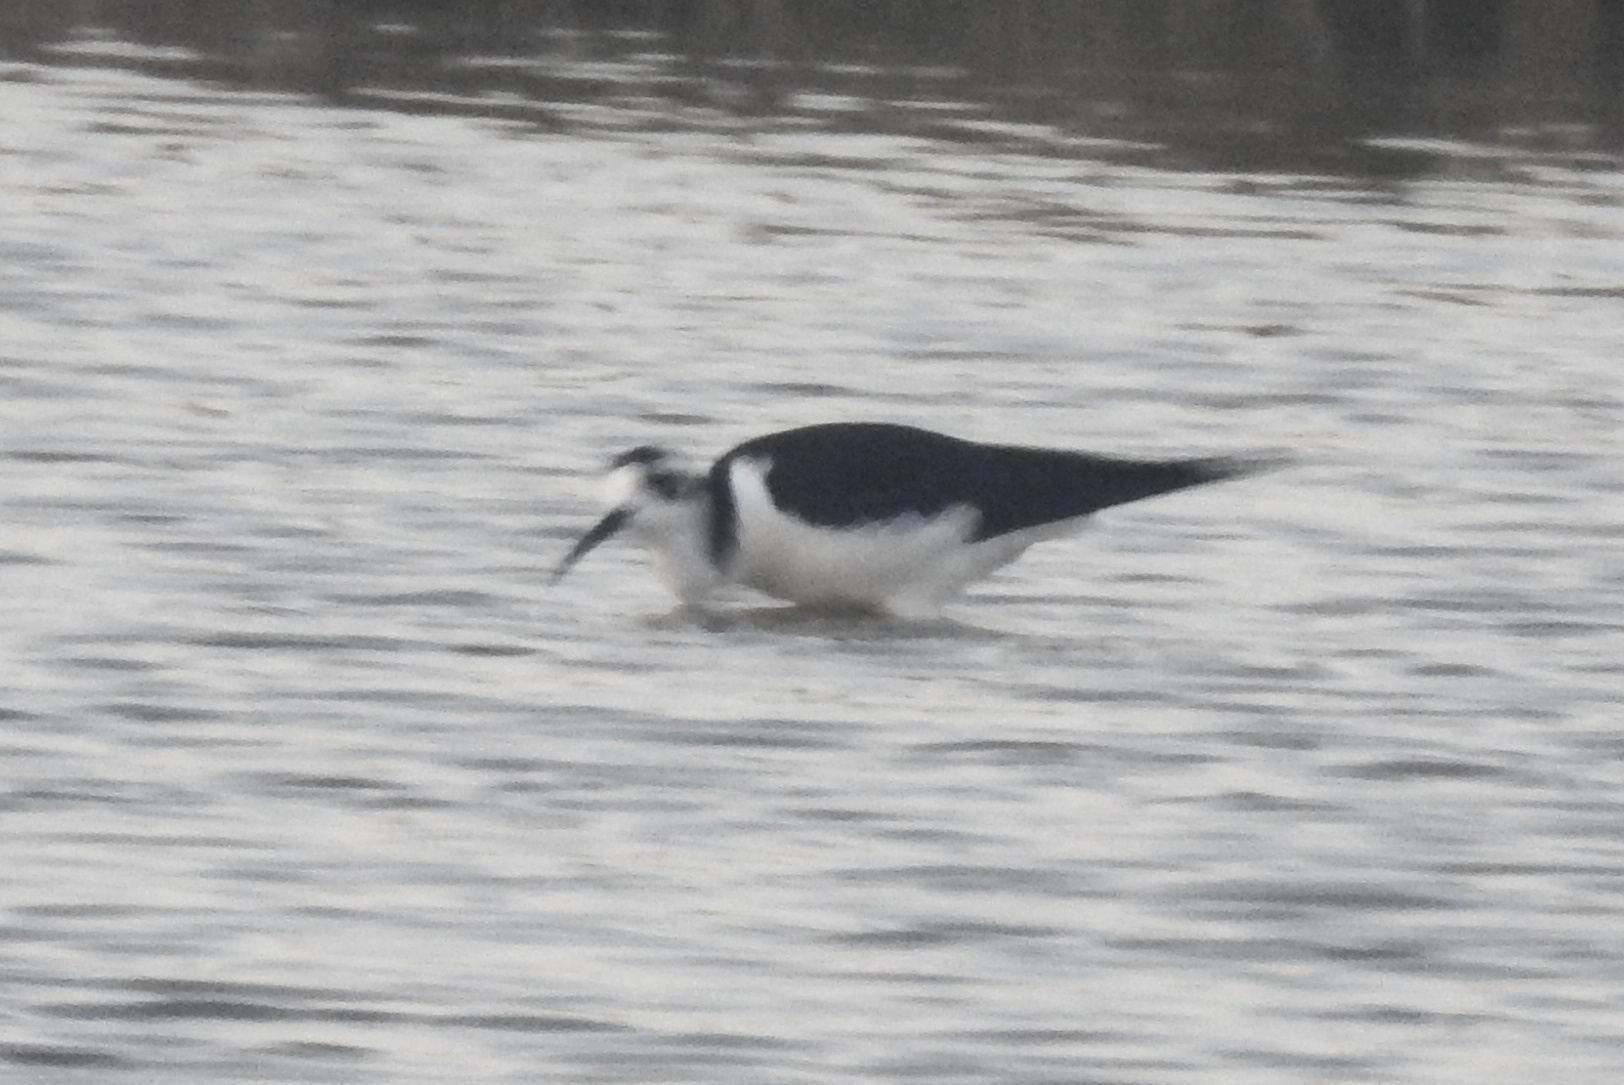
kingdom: Animalia
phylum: Chordata
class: Aves
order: Charadriiformes
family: Recurvirostridae
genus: Himantopus
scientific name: Himantopus mexicanus
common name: Black-necked stilt
